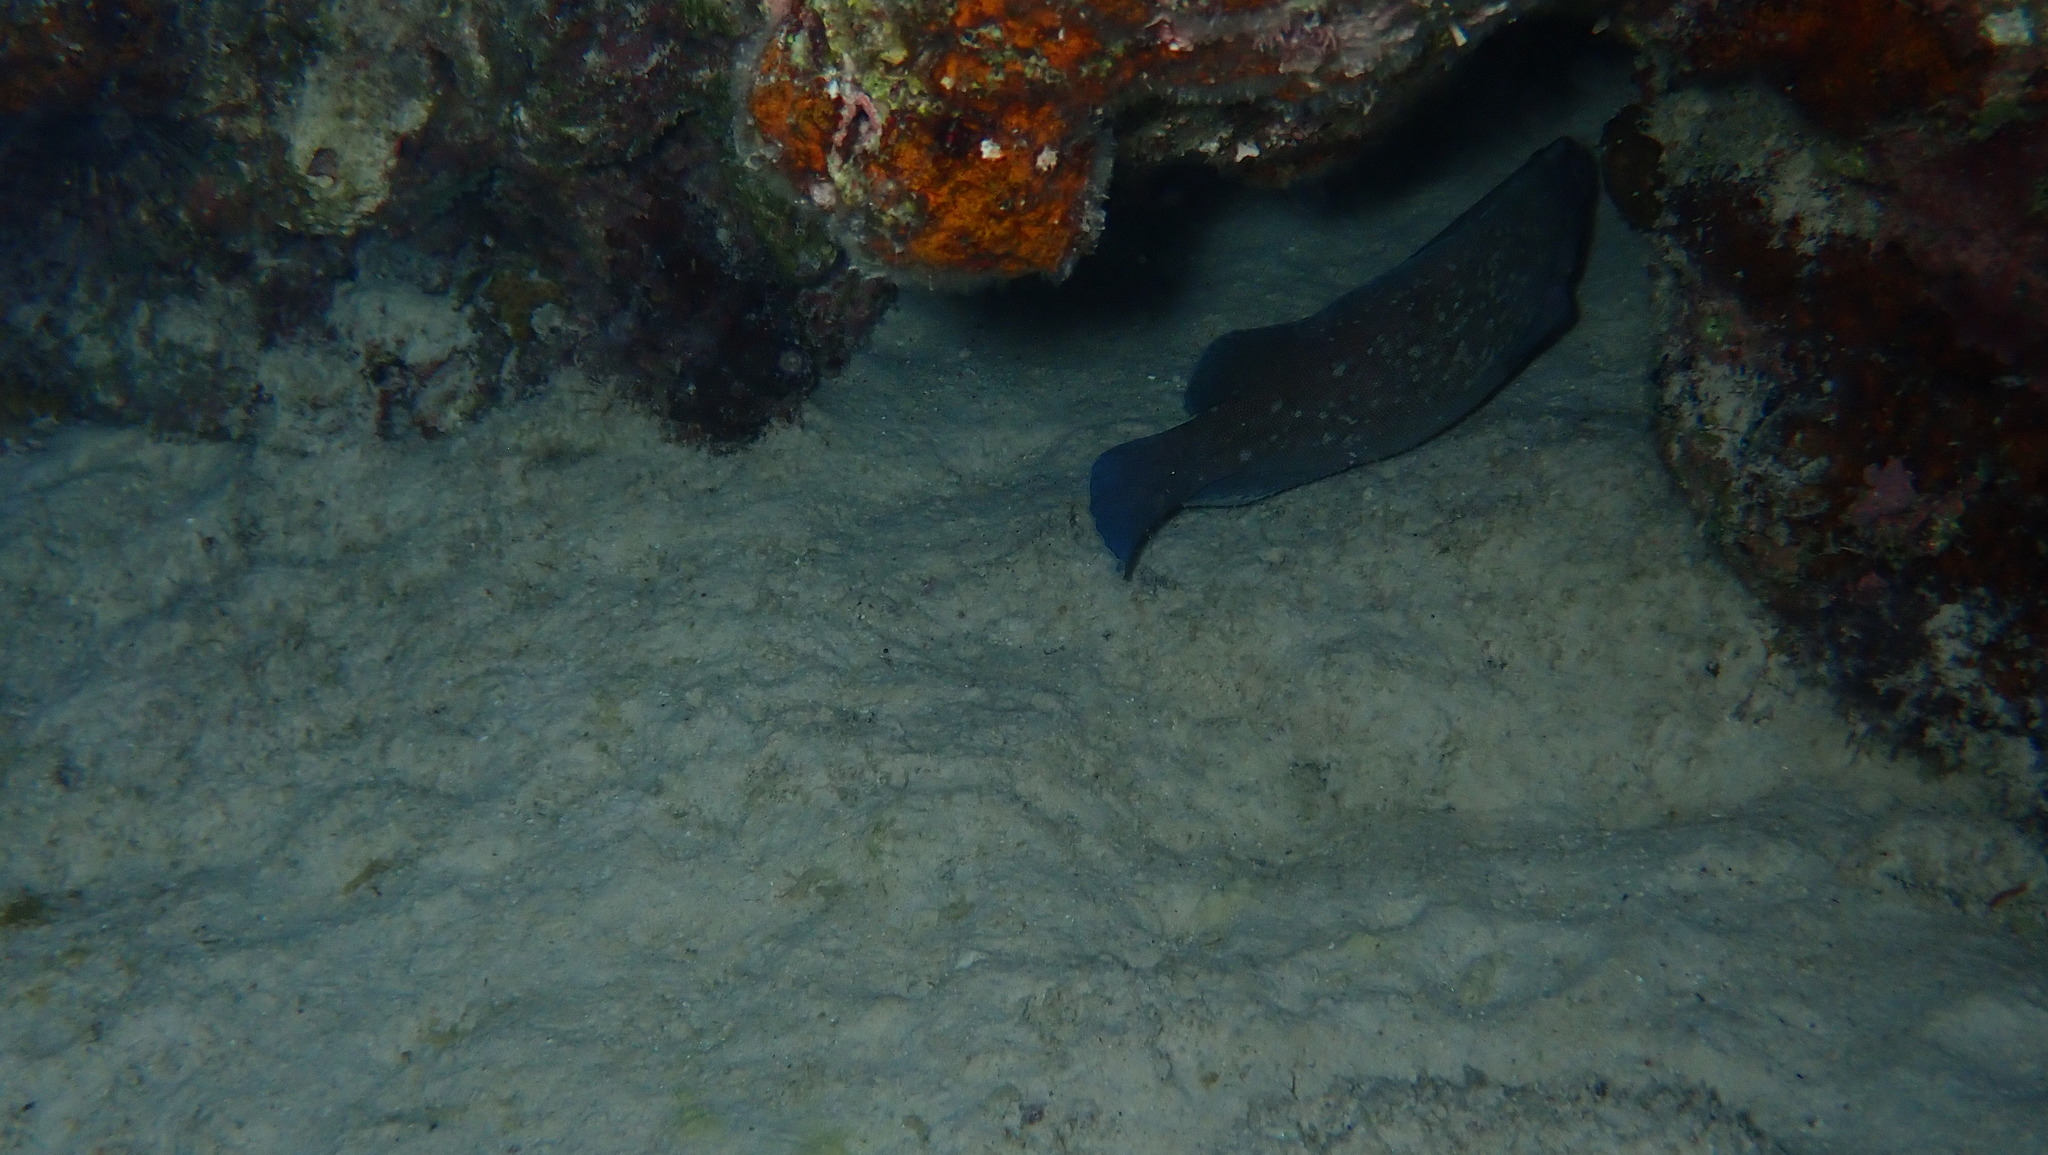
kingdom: Animalia
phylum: Chordata
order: Perciformes
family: Serranidae
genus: Rypticus
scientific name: Rypticus saponaceus
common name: Soapfish
